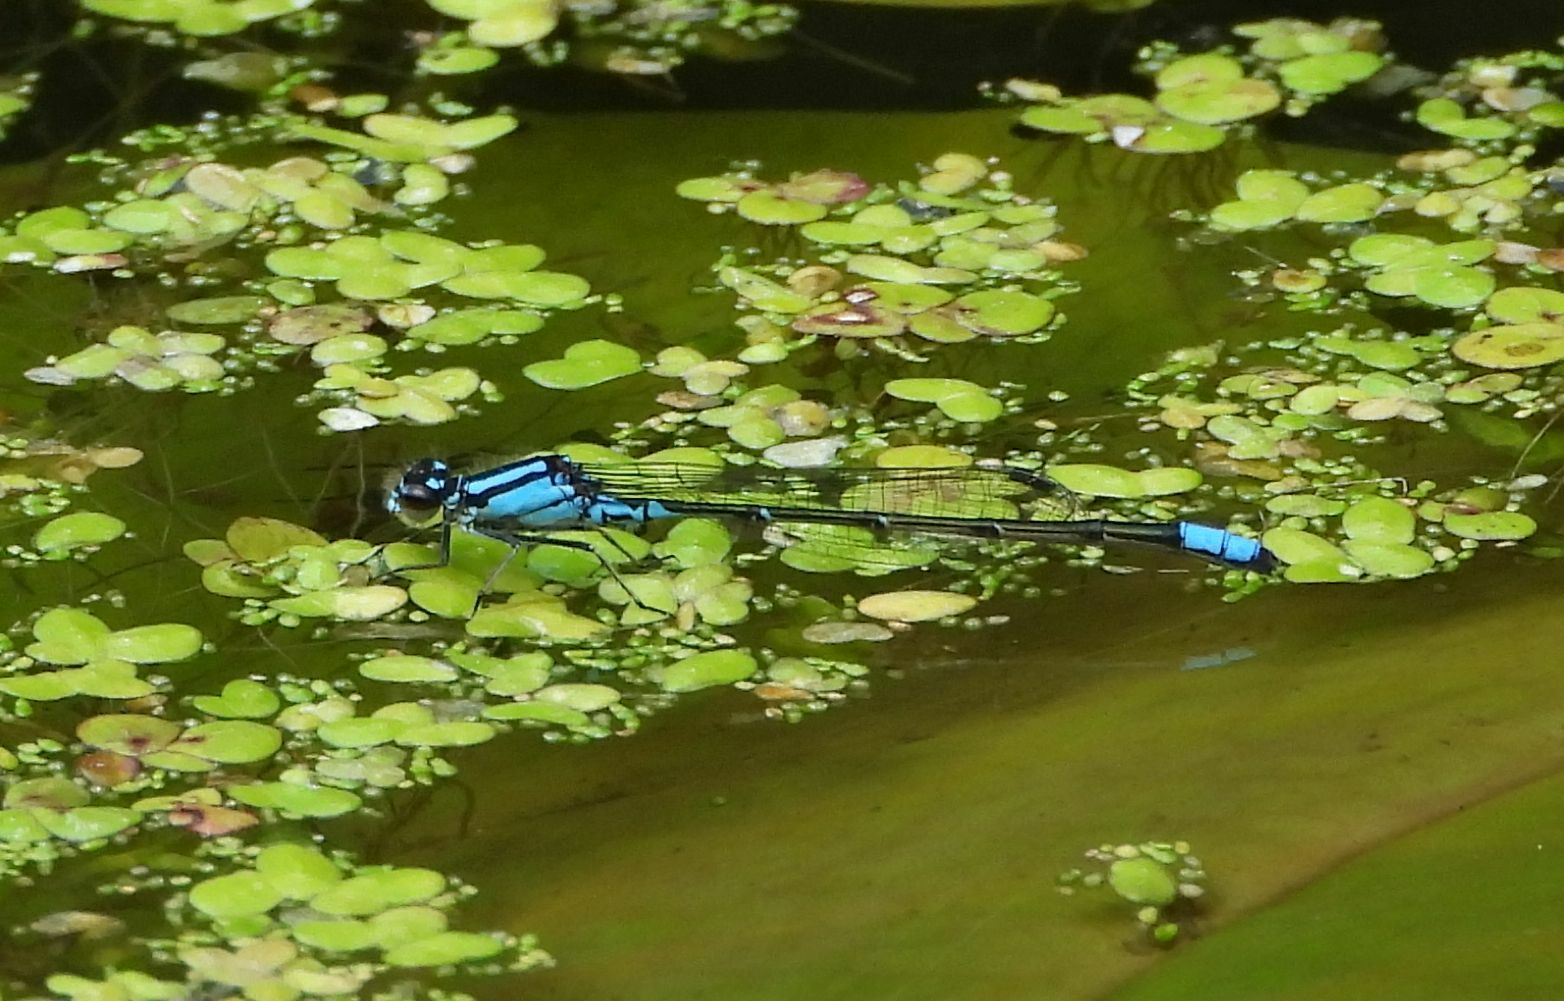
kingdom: Animalia
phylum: Arthropoda
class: Insecta
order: Odonata
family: Coenagrionidae
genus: Enallagma
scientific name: Enallagma geminatum
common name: Skimming bluet
